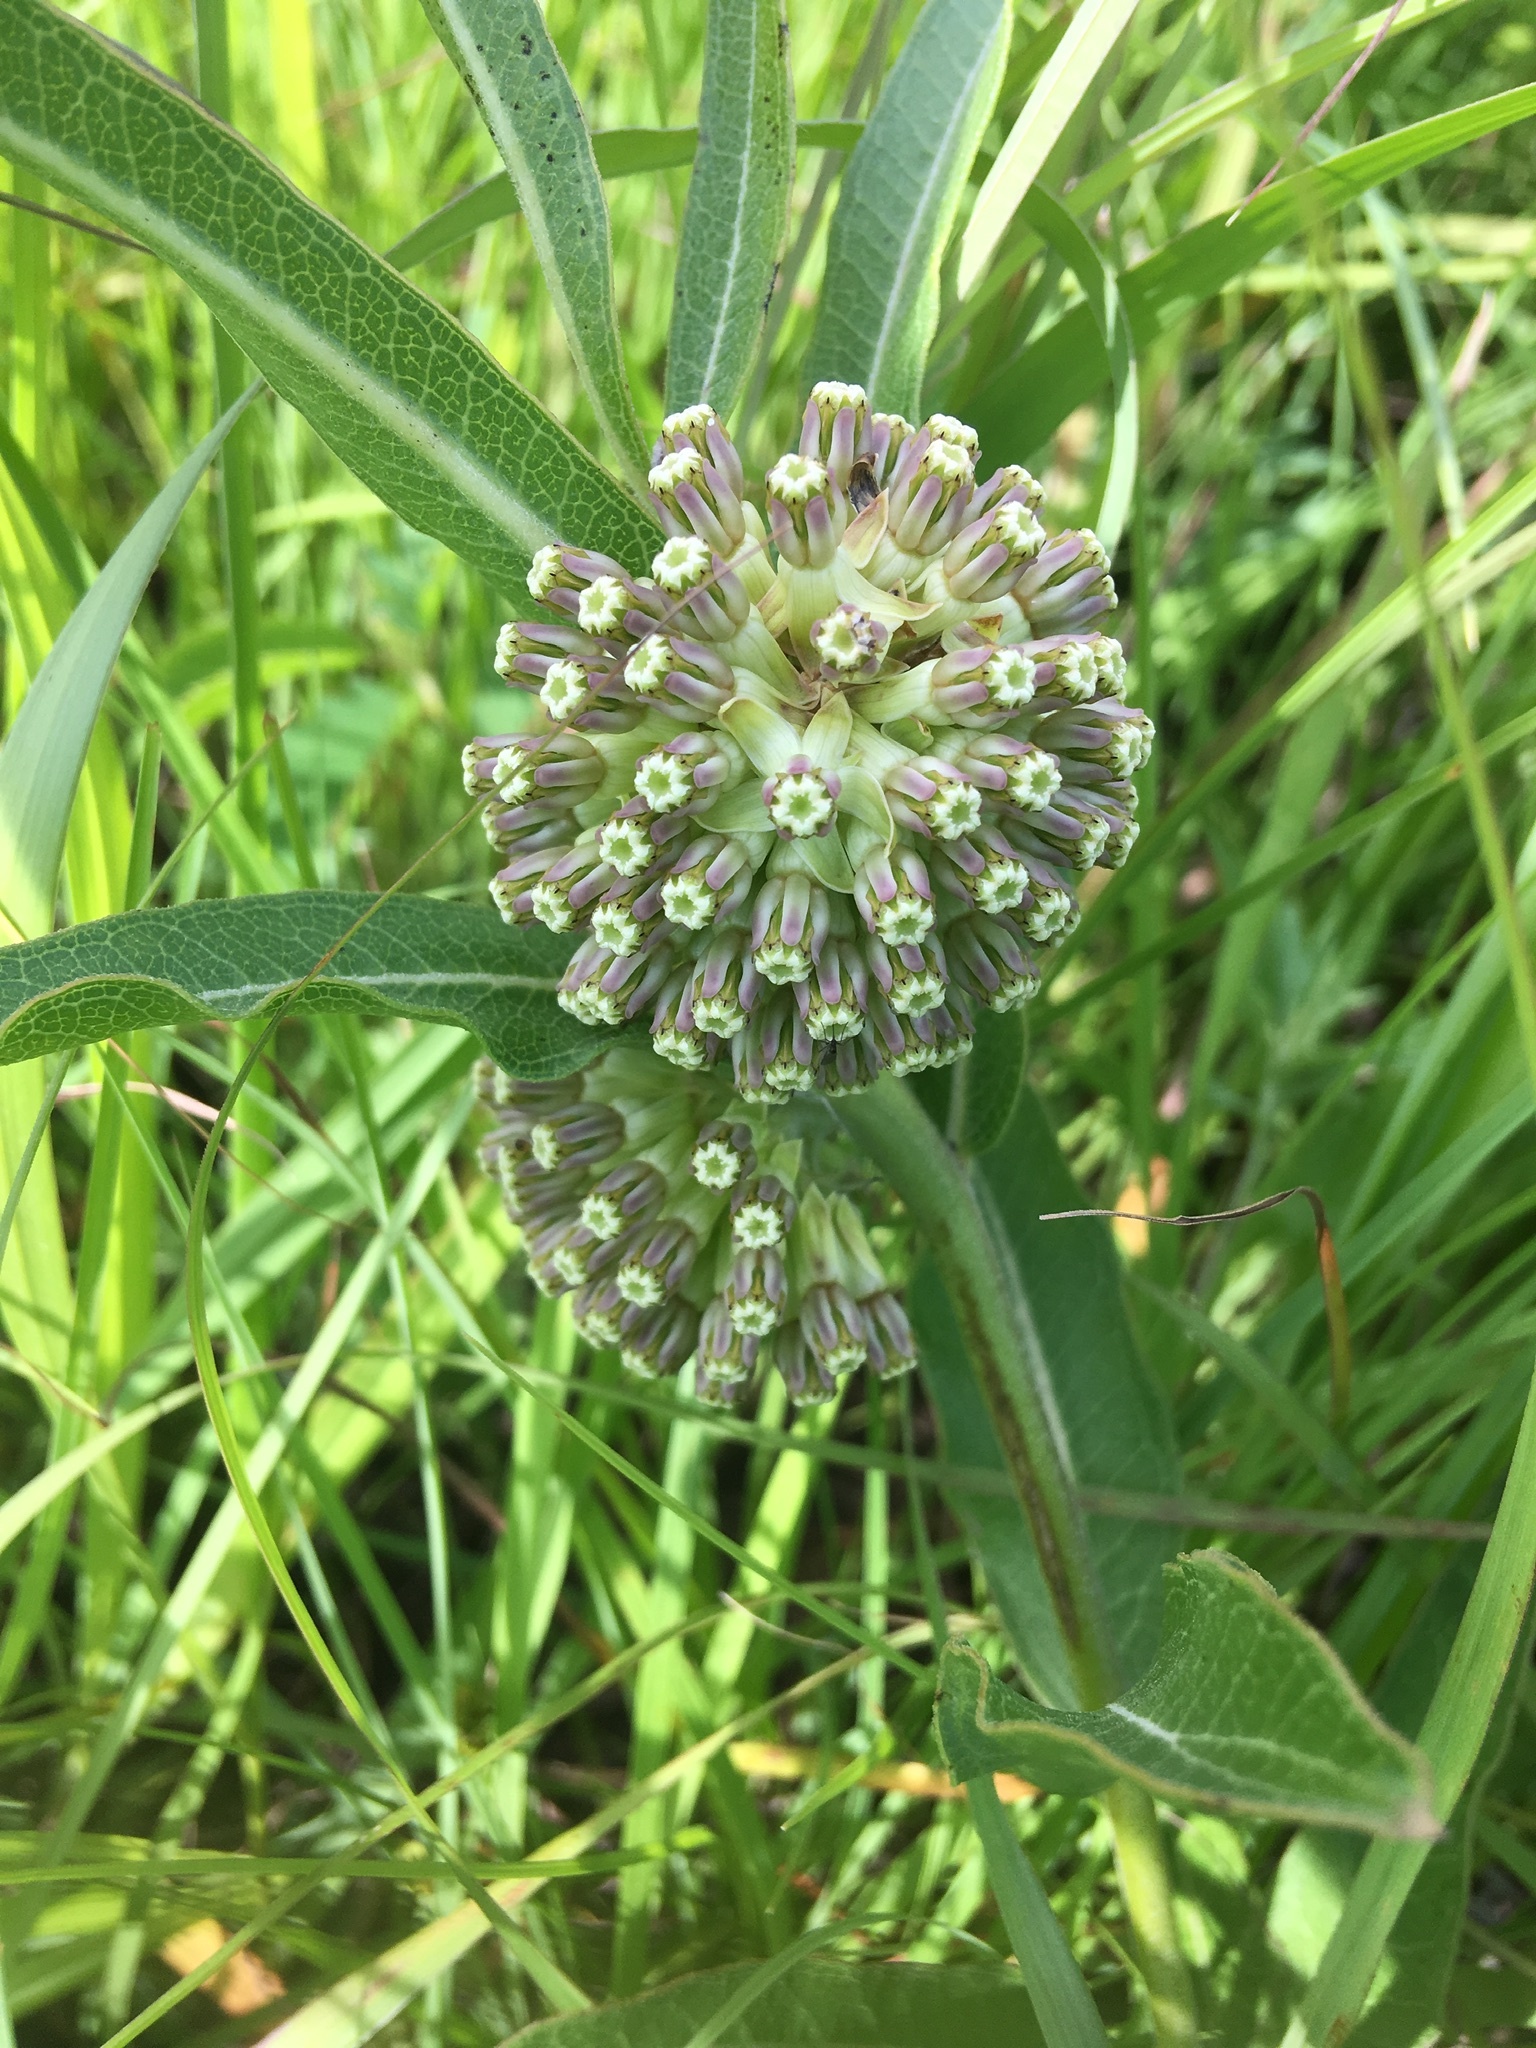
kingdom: Plantae
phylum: Tracheophyta
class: Magnoliopsida
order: Gentianales
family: Apocynaceae
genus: Asclepias
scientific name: Asclepias viridiflora
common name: Green comet milkweed
